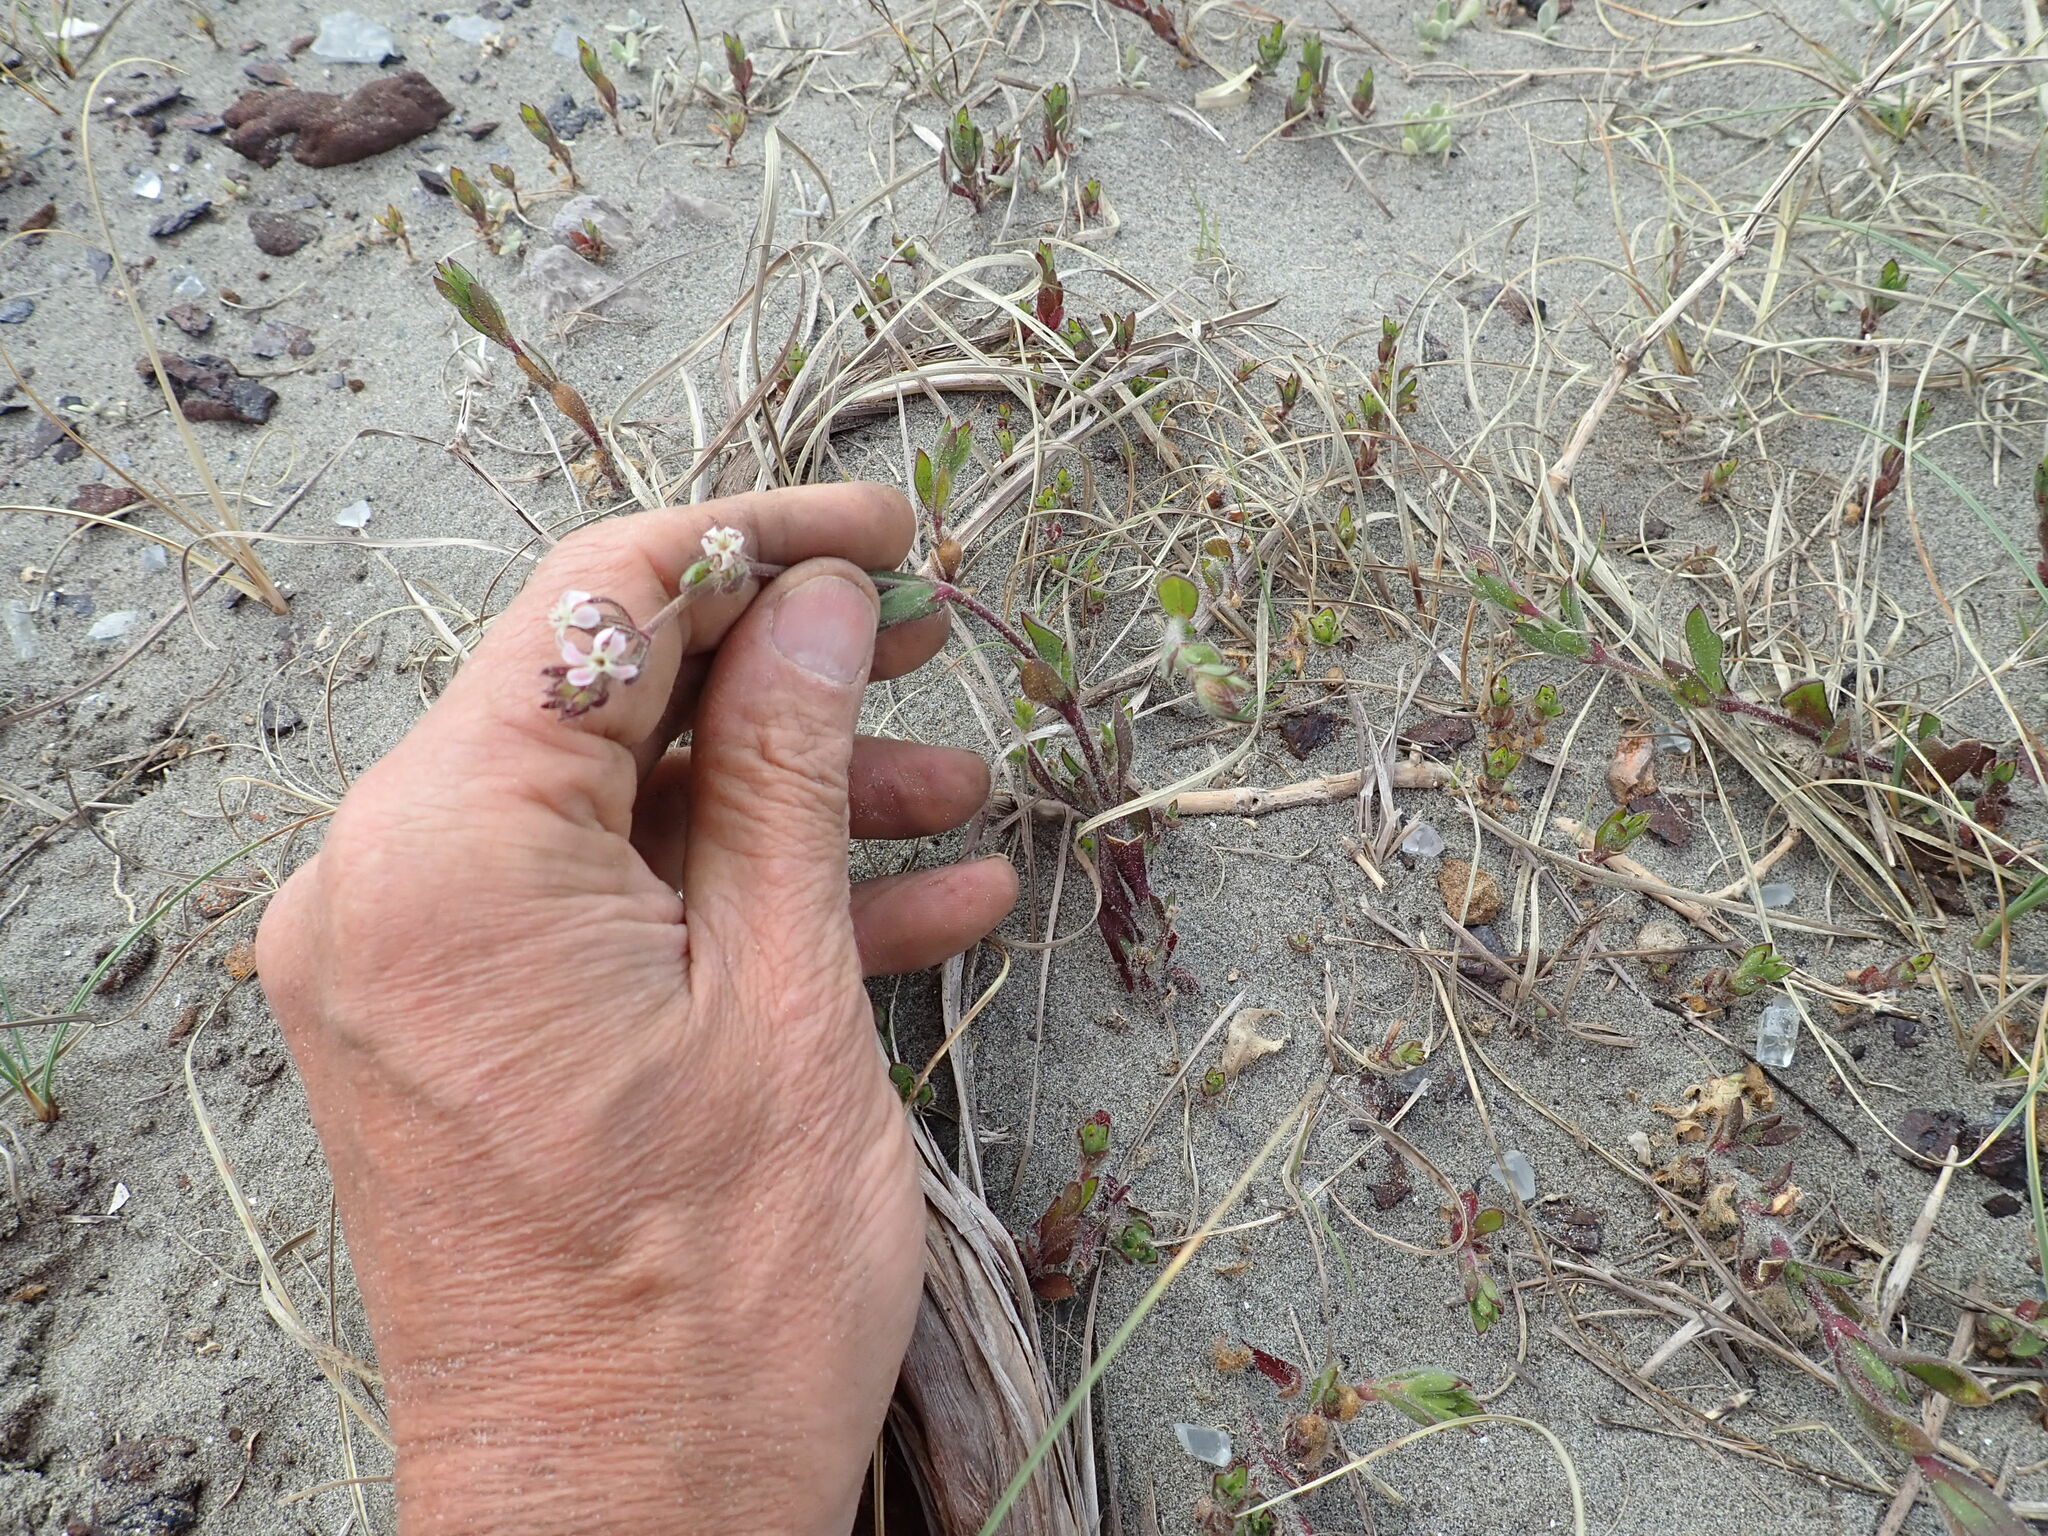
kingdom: Plantae
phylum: Tracheophyta
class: Magnoliopsida
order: Caryophyllales
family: Caryophyllaceae
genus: Silene
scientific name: Silene gallica
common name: Small-flowered catchfly
